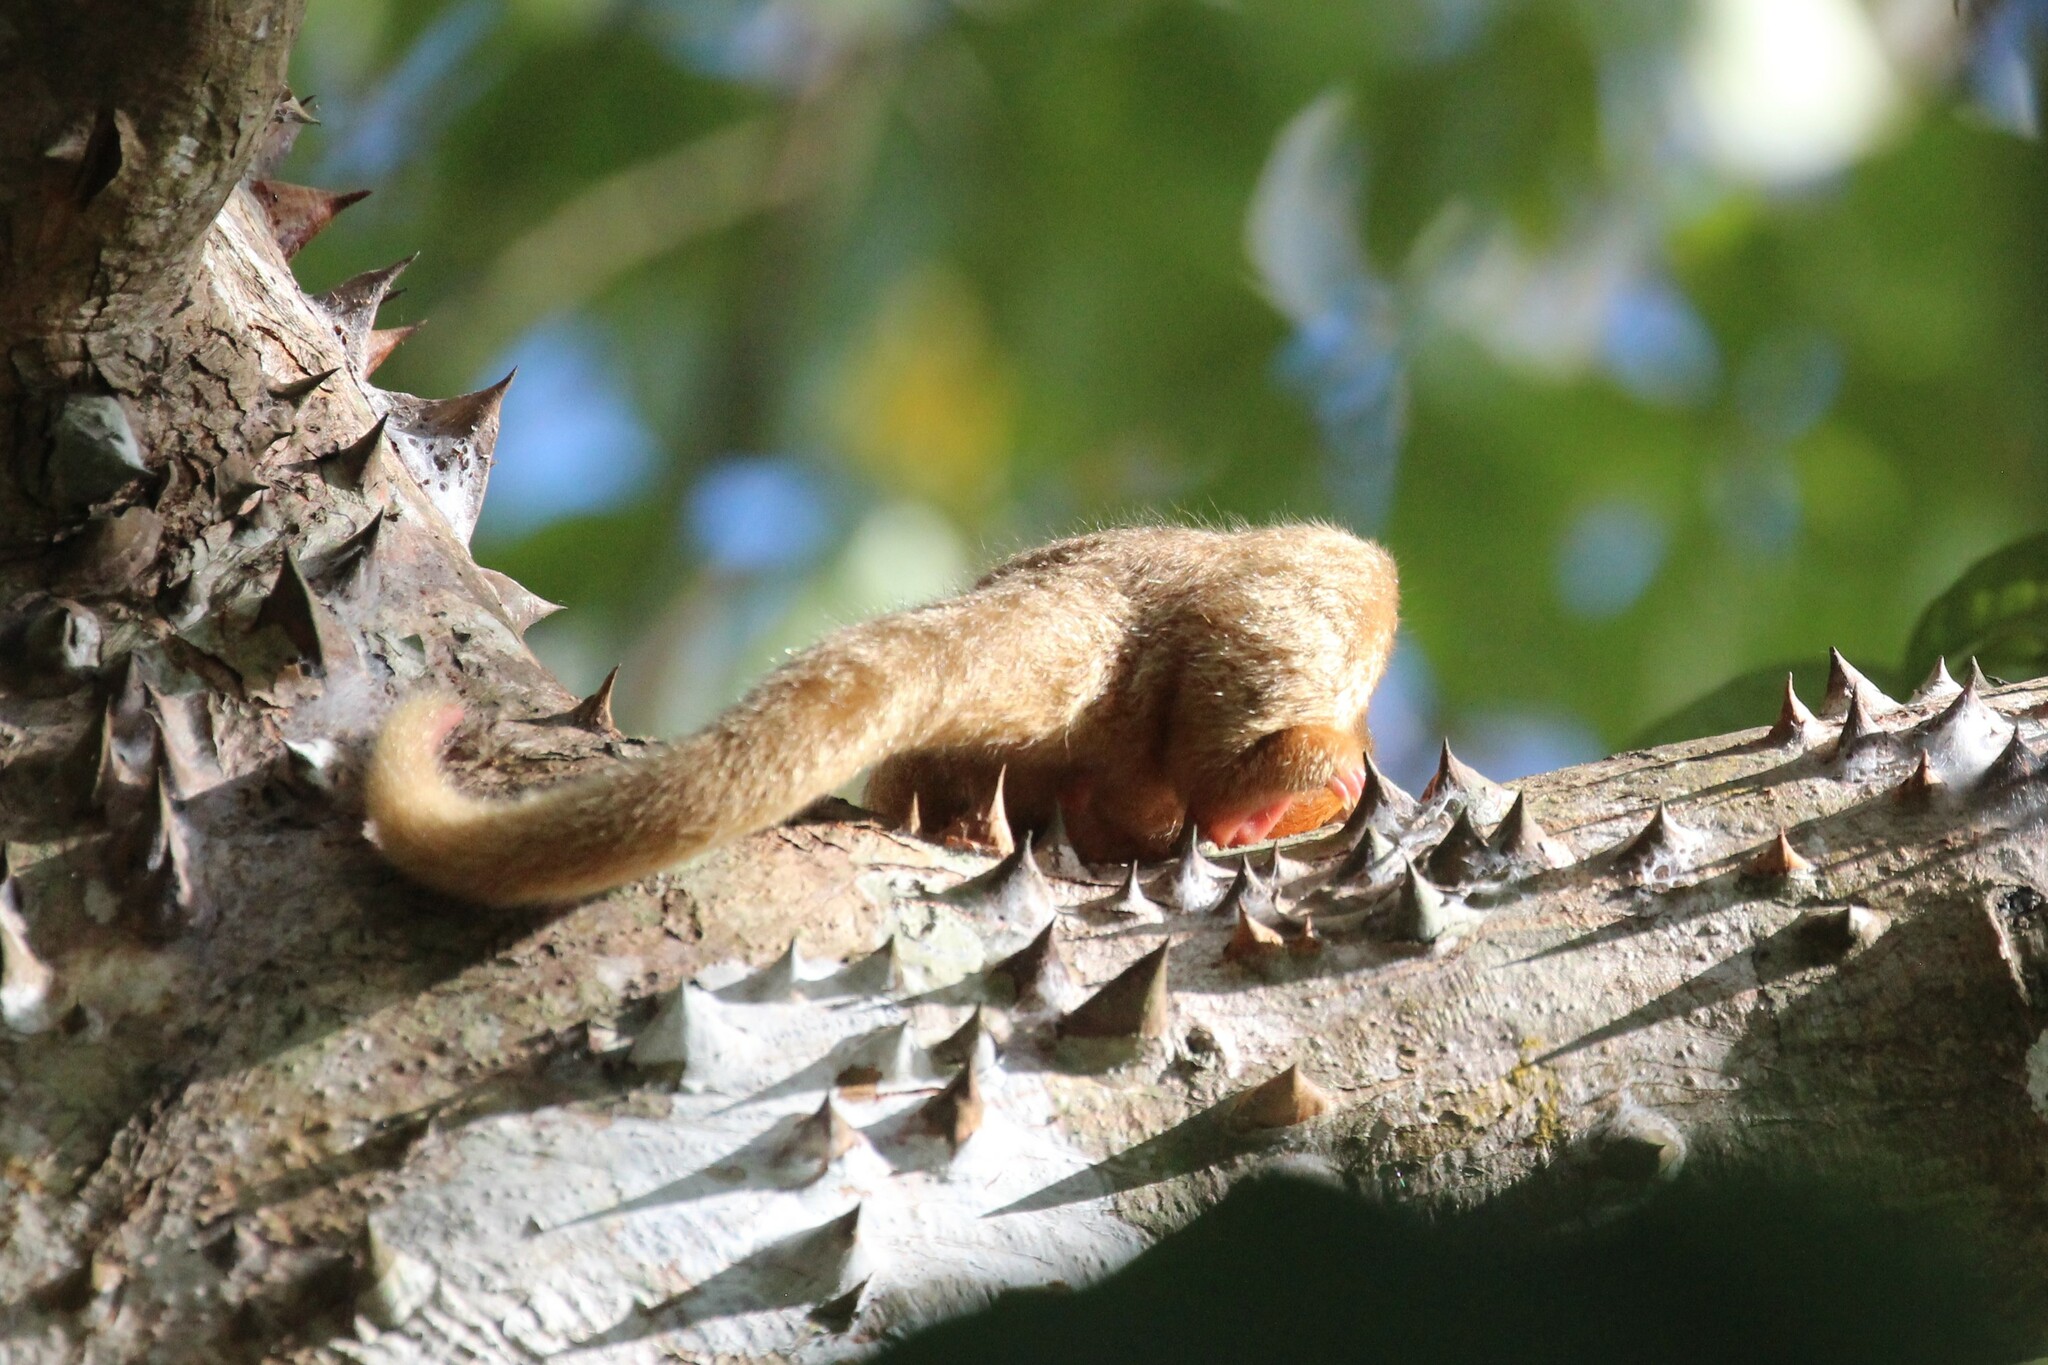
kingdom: Animalia
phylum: Chordata
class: Mammalia
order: Pilosa
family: Cyclopedidae
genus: Cyclopes
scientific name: Cyclopes dorsalis
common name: Central american silky anteater
